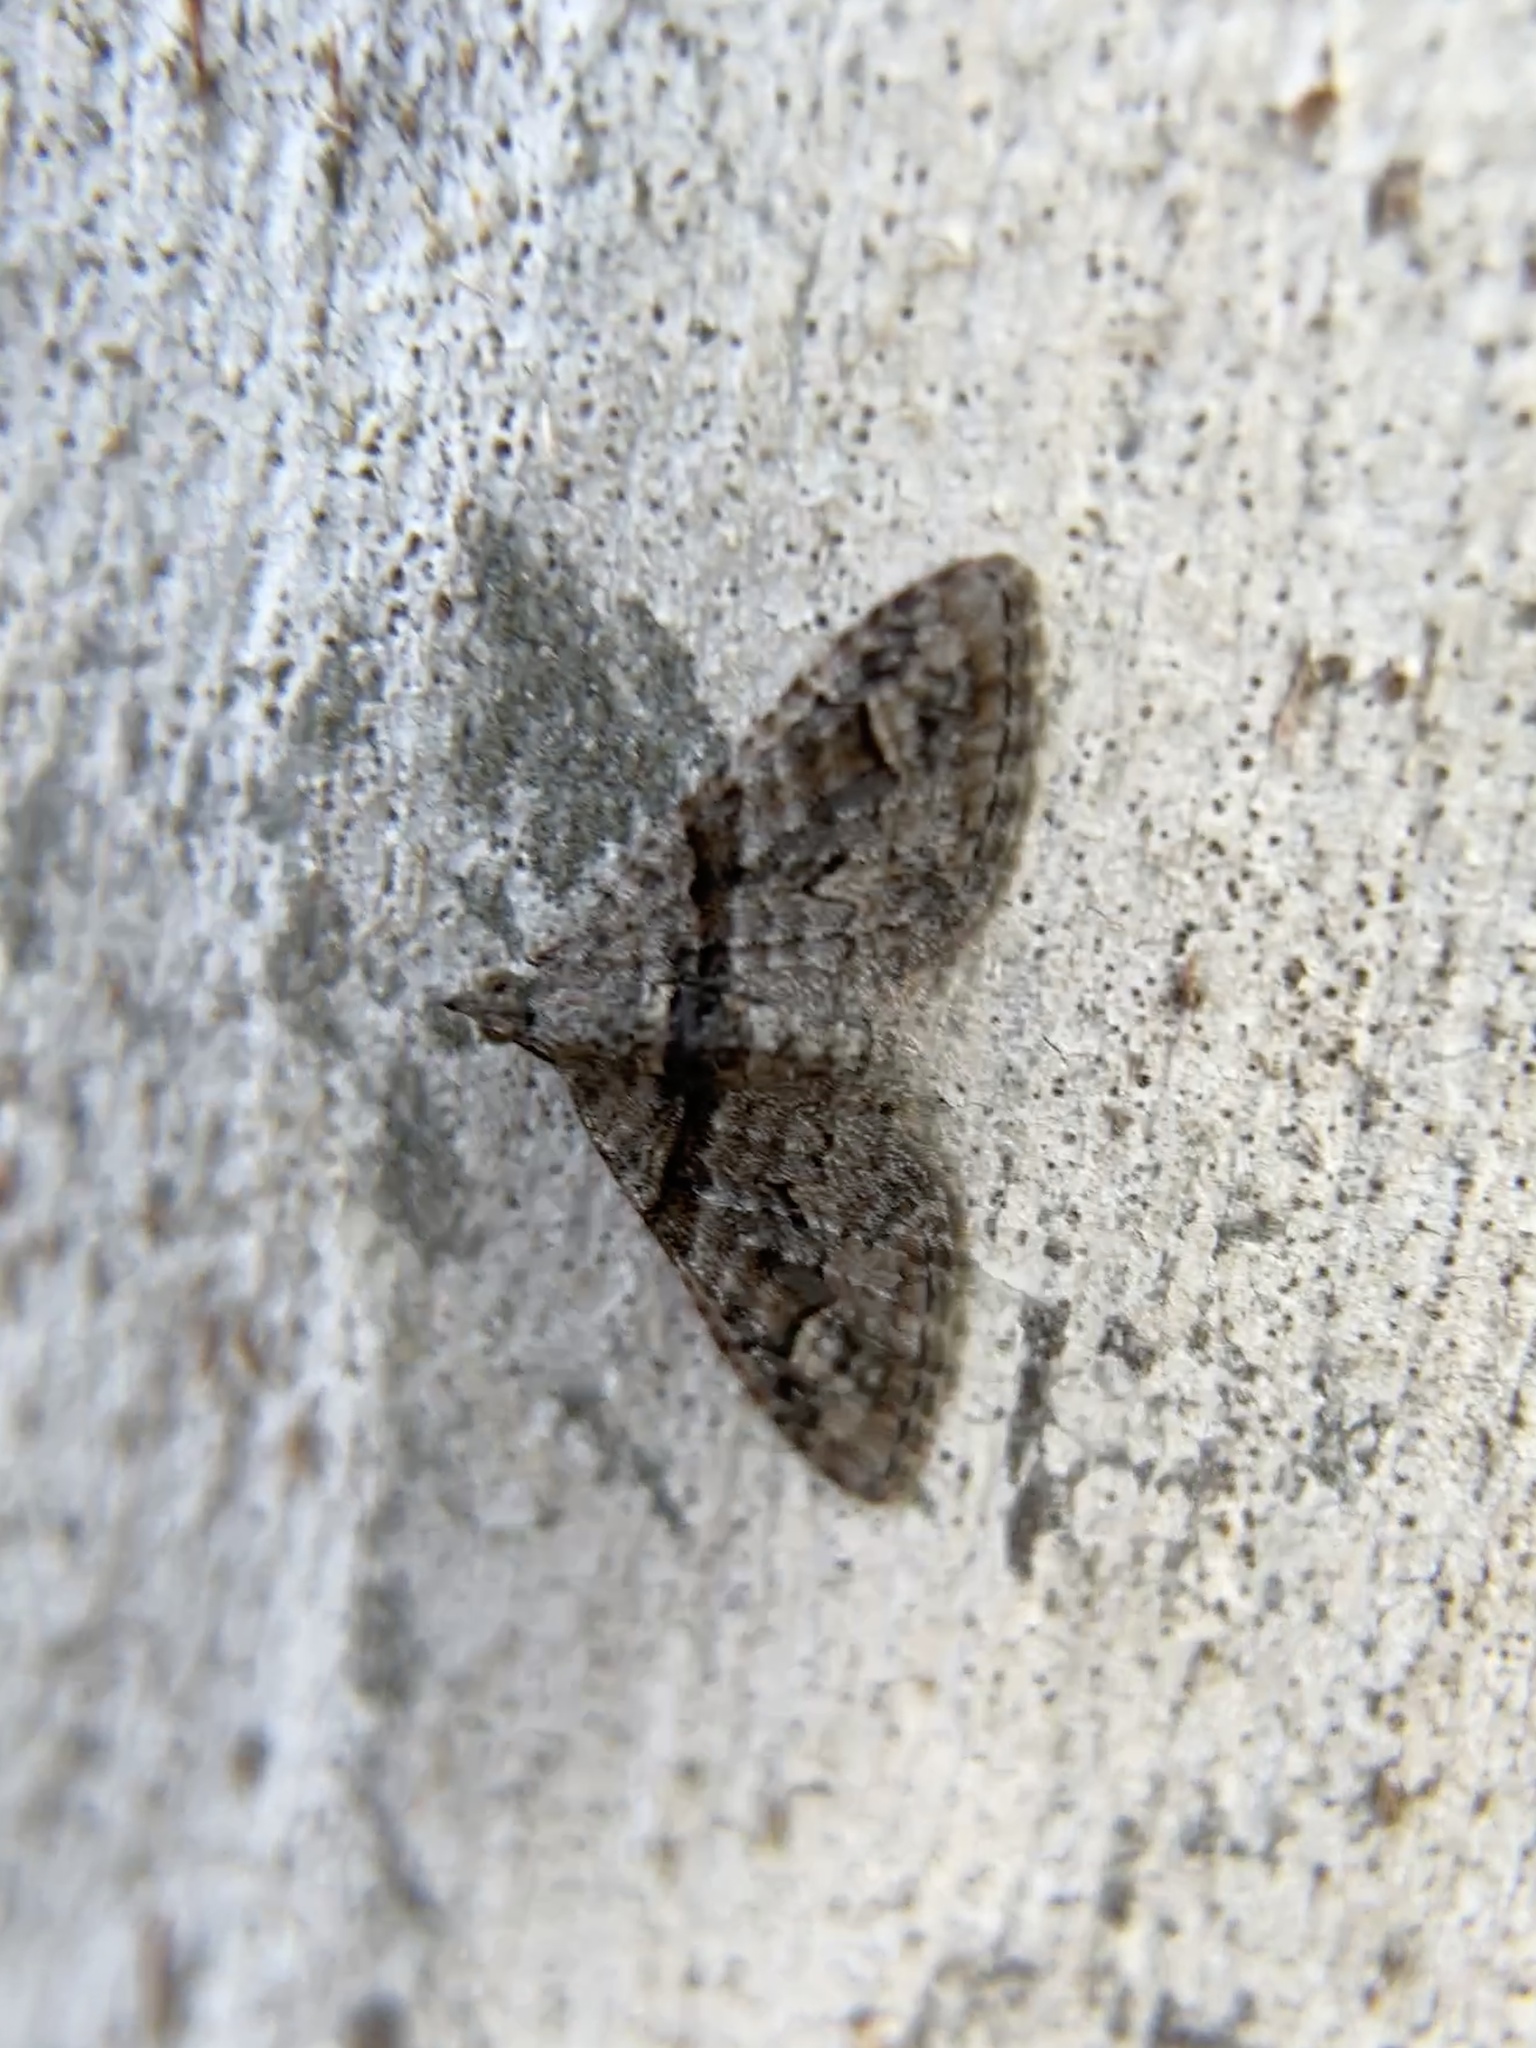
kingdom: Animalia
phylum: Arthropoda
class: Insecta
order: Lepidoptera
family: Geometridae
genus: Phrissogonus
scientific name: Phrissogonus laticostata
